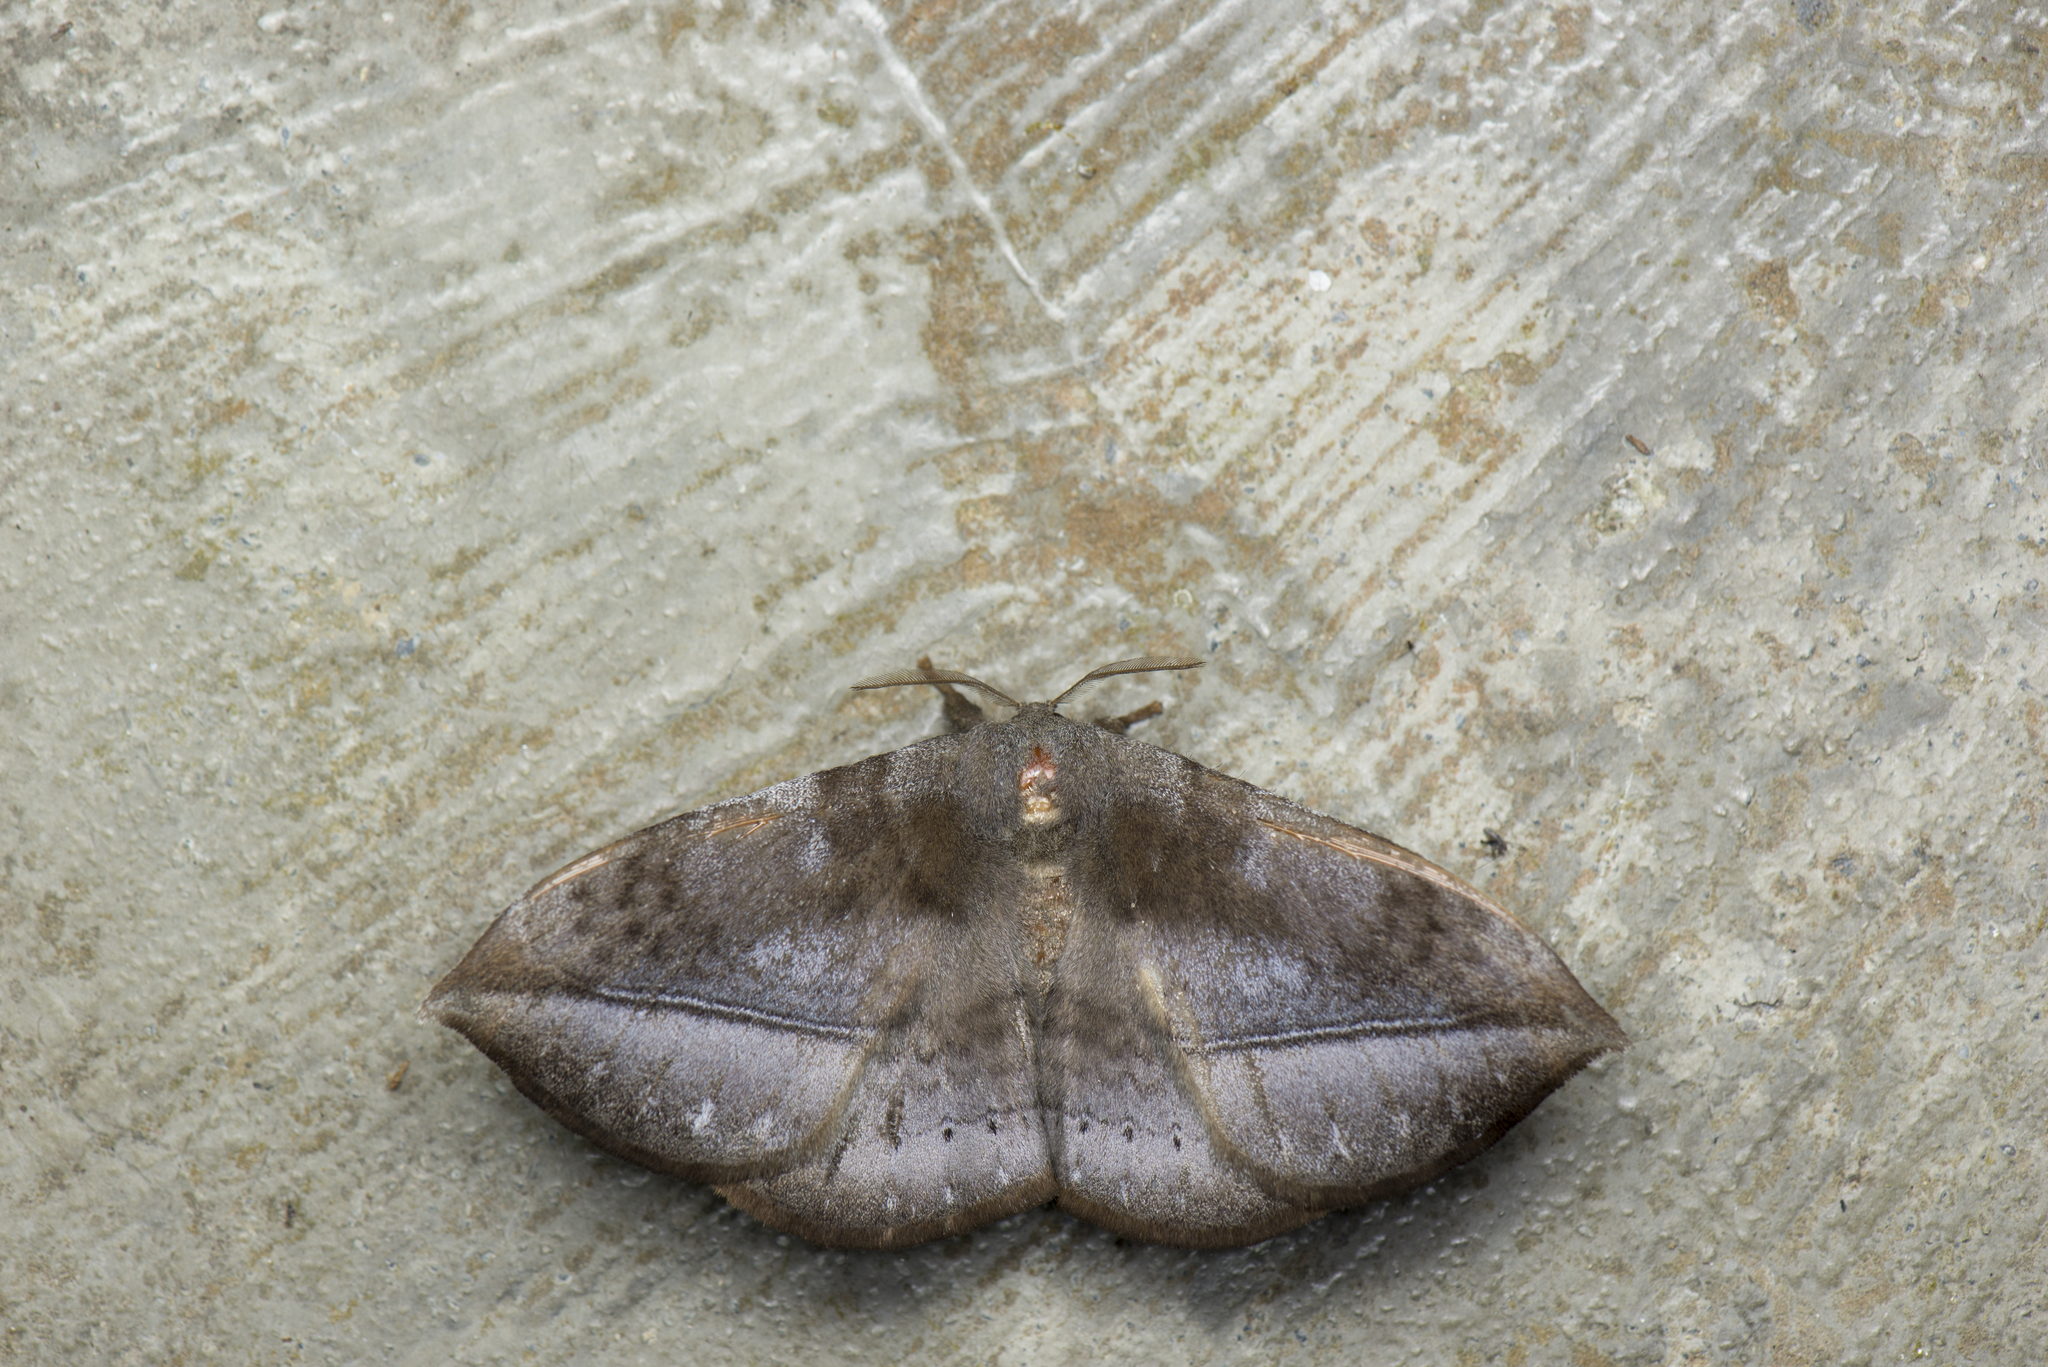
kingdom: Animalia
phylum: Arthropoda
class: Insecta
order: Lepidoptera
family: Eupterotidae
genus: Ganisa
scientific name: Ganisa formosicola
